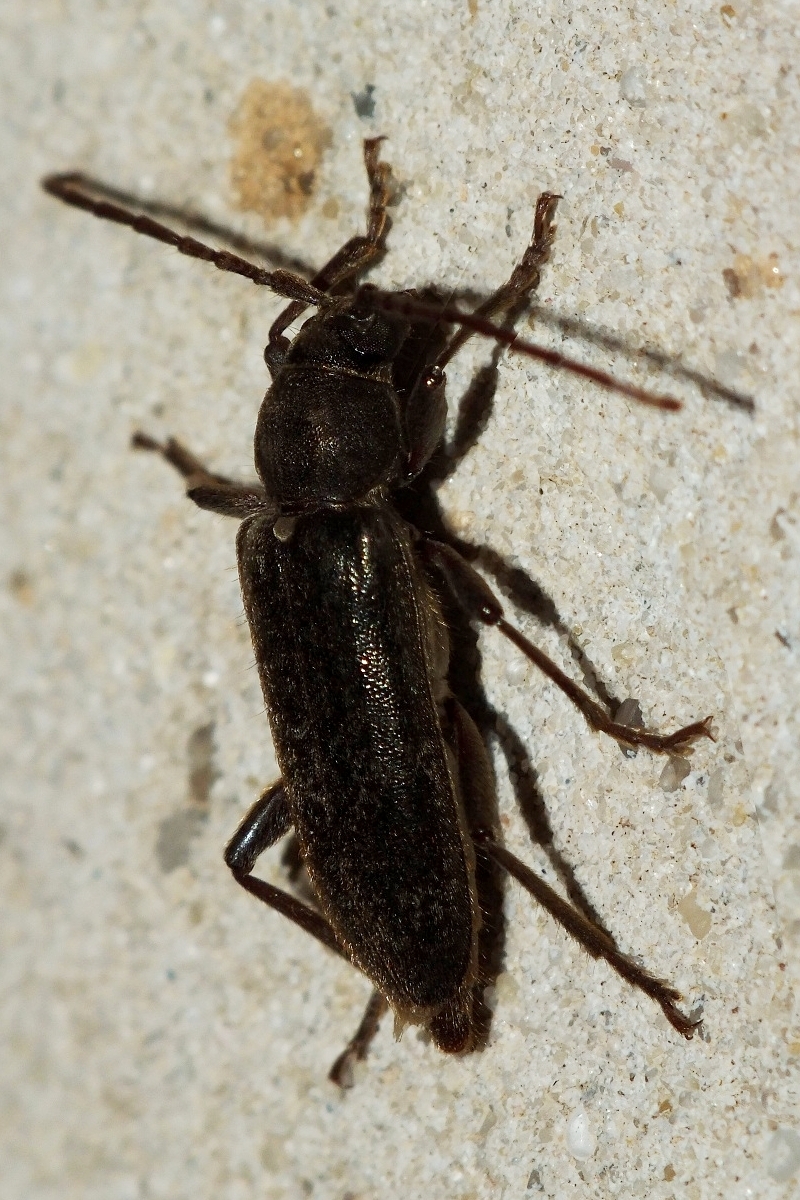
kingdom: Animalia
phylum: Arthropoda
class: Insecta
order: Coleoptera
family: Cerambycidae
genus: Trichoferus
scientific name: Trichoferus campestris
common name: Velvet long horned beetle
